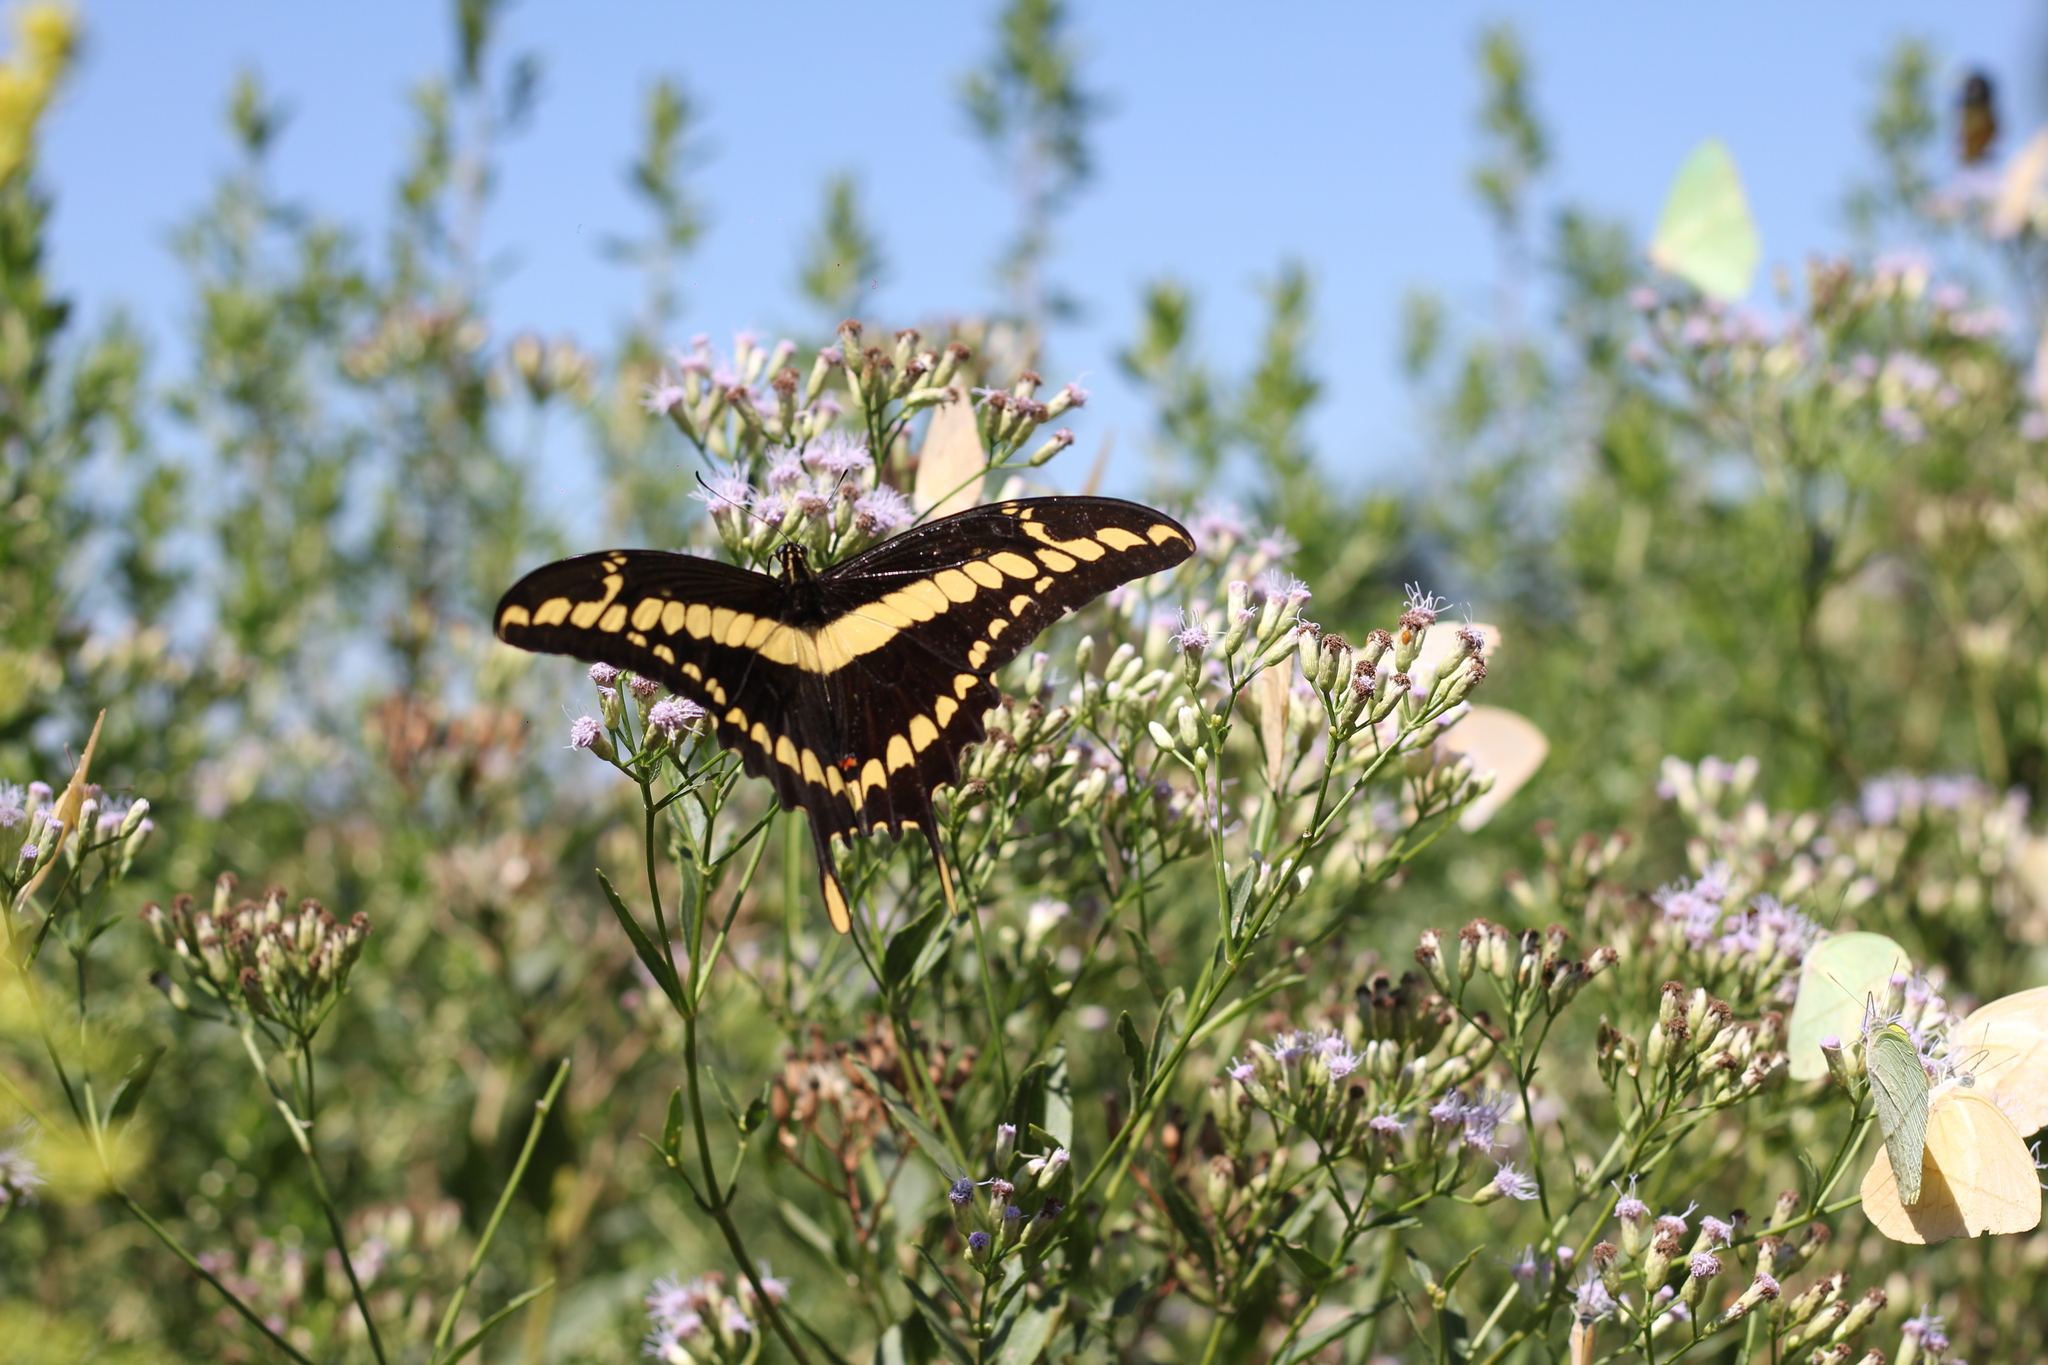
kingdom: Animalia
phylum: Arthropoda
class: Insecta
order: Lepidoptera
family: Papilionidae
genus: Papilio
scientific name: Papilio thoas
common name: King swallowtail
